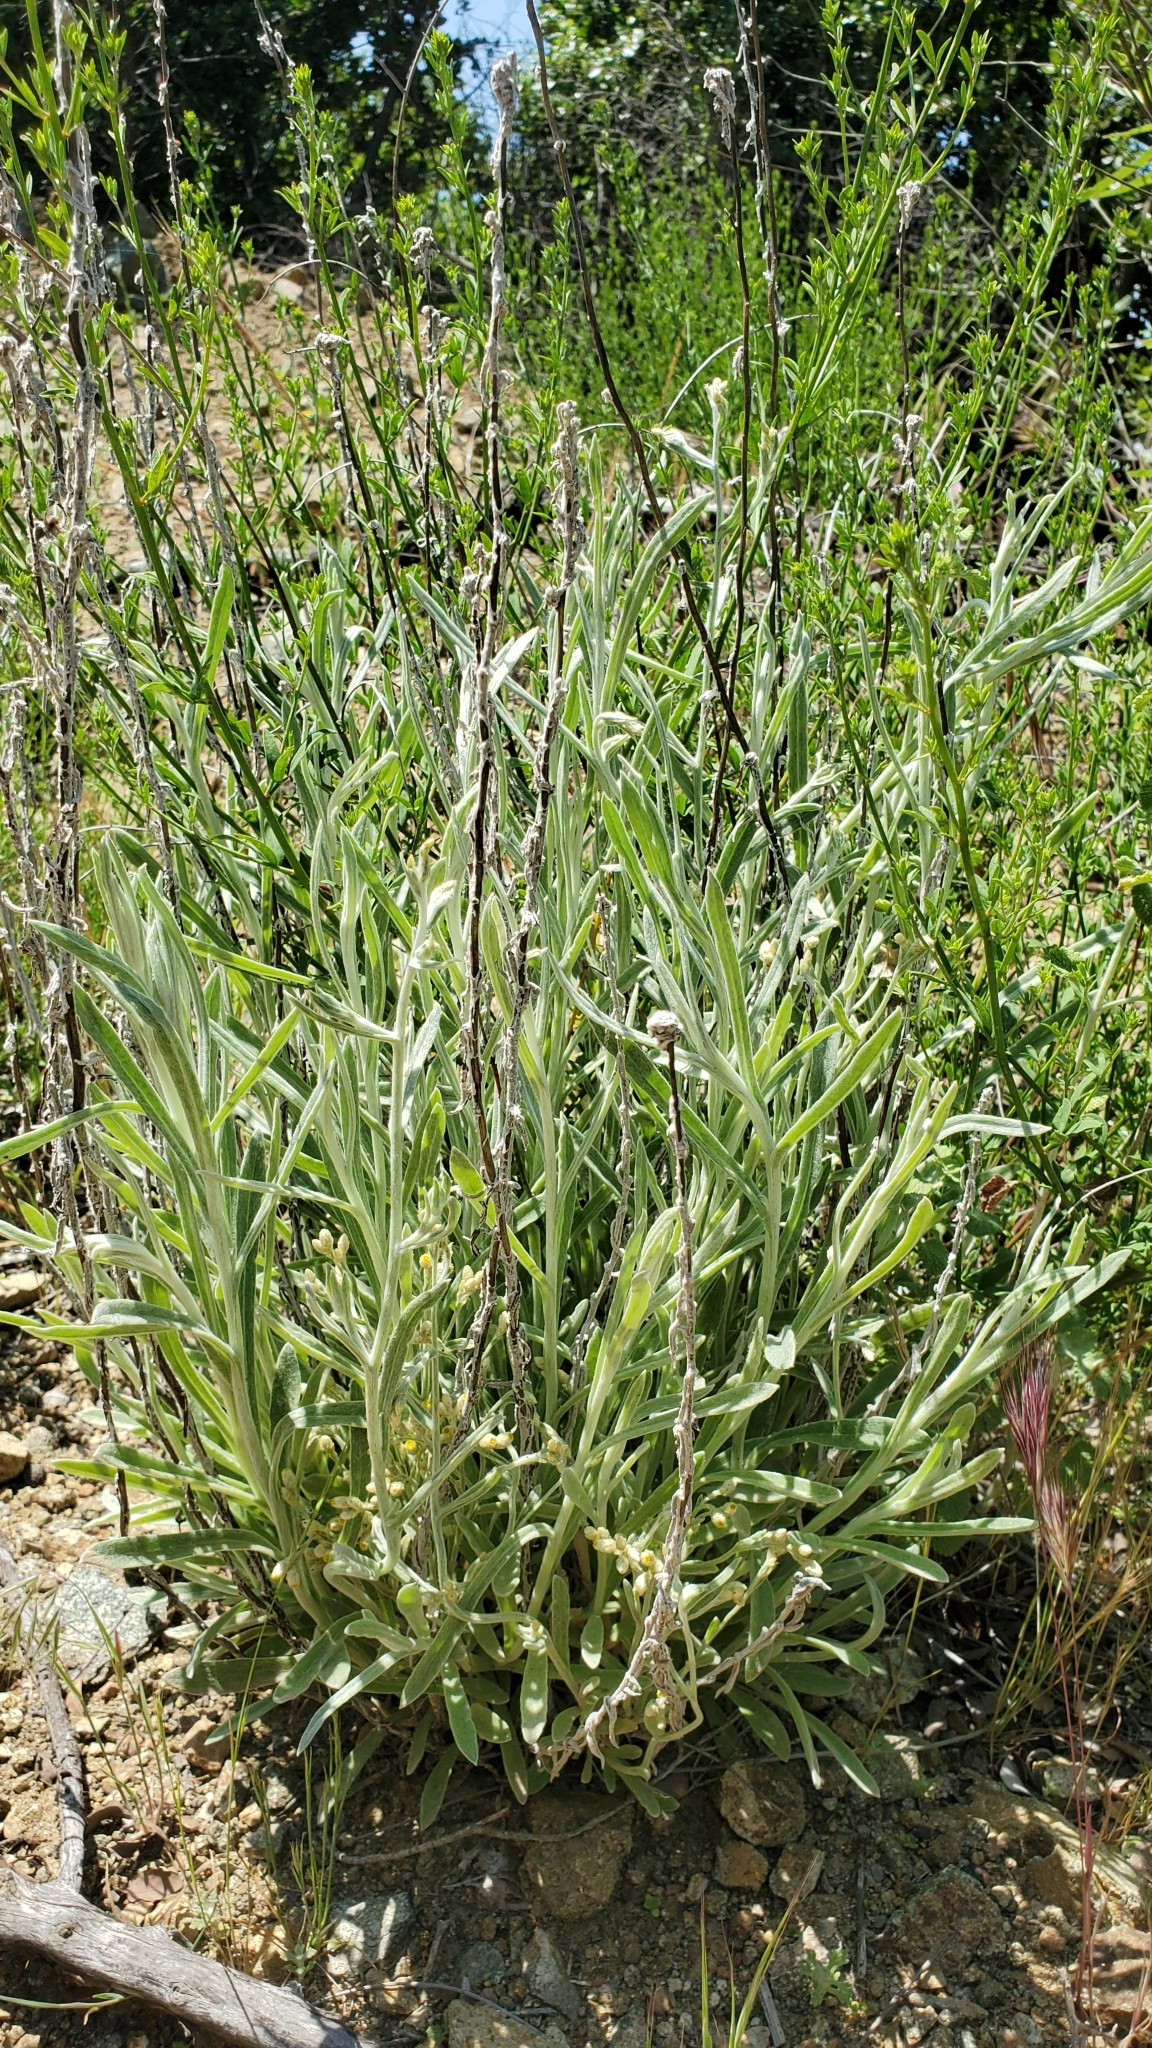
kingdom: Plantae
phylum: Tracheophyta
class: Magnoliopsida
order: Asterales
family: Asteraceae
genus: Pseudognaphalium
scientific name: Pseudognaphalium beneolens
